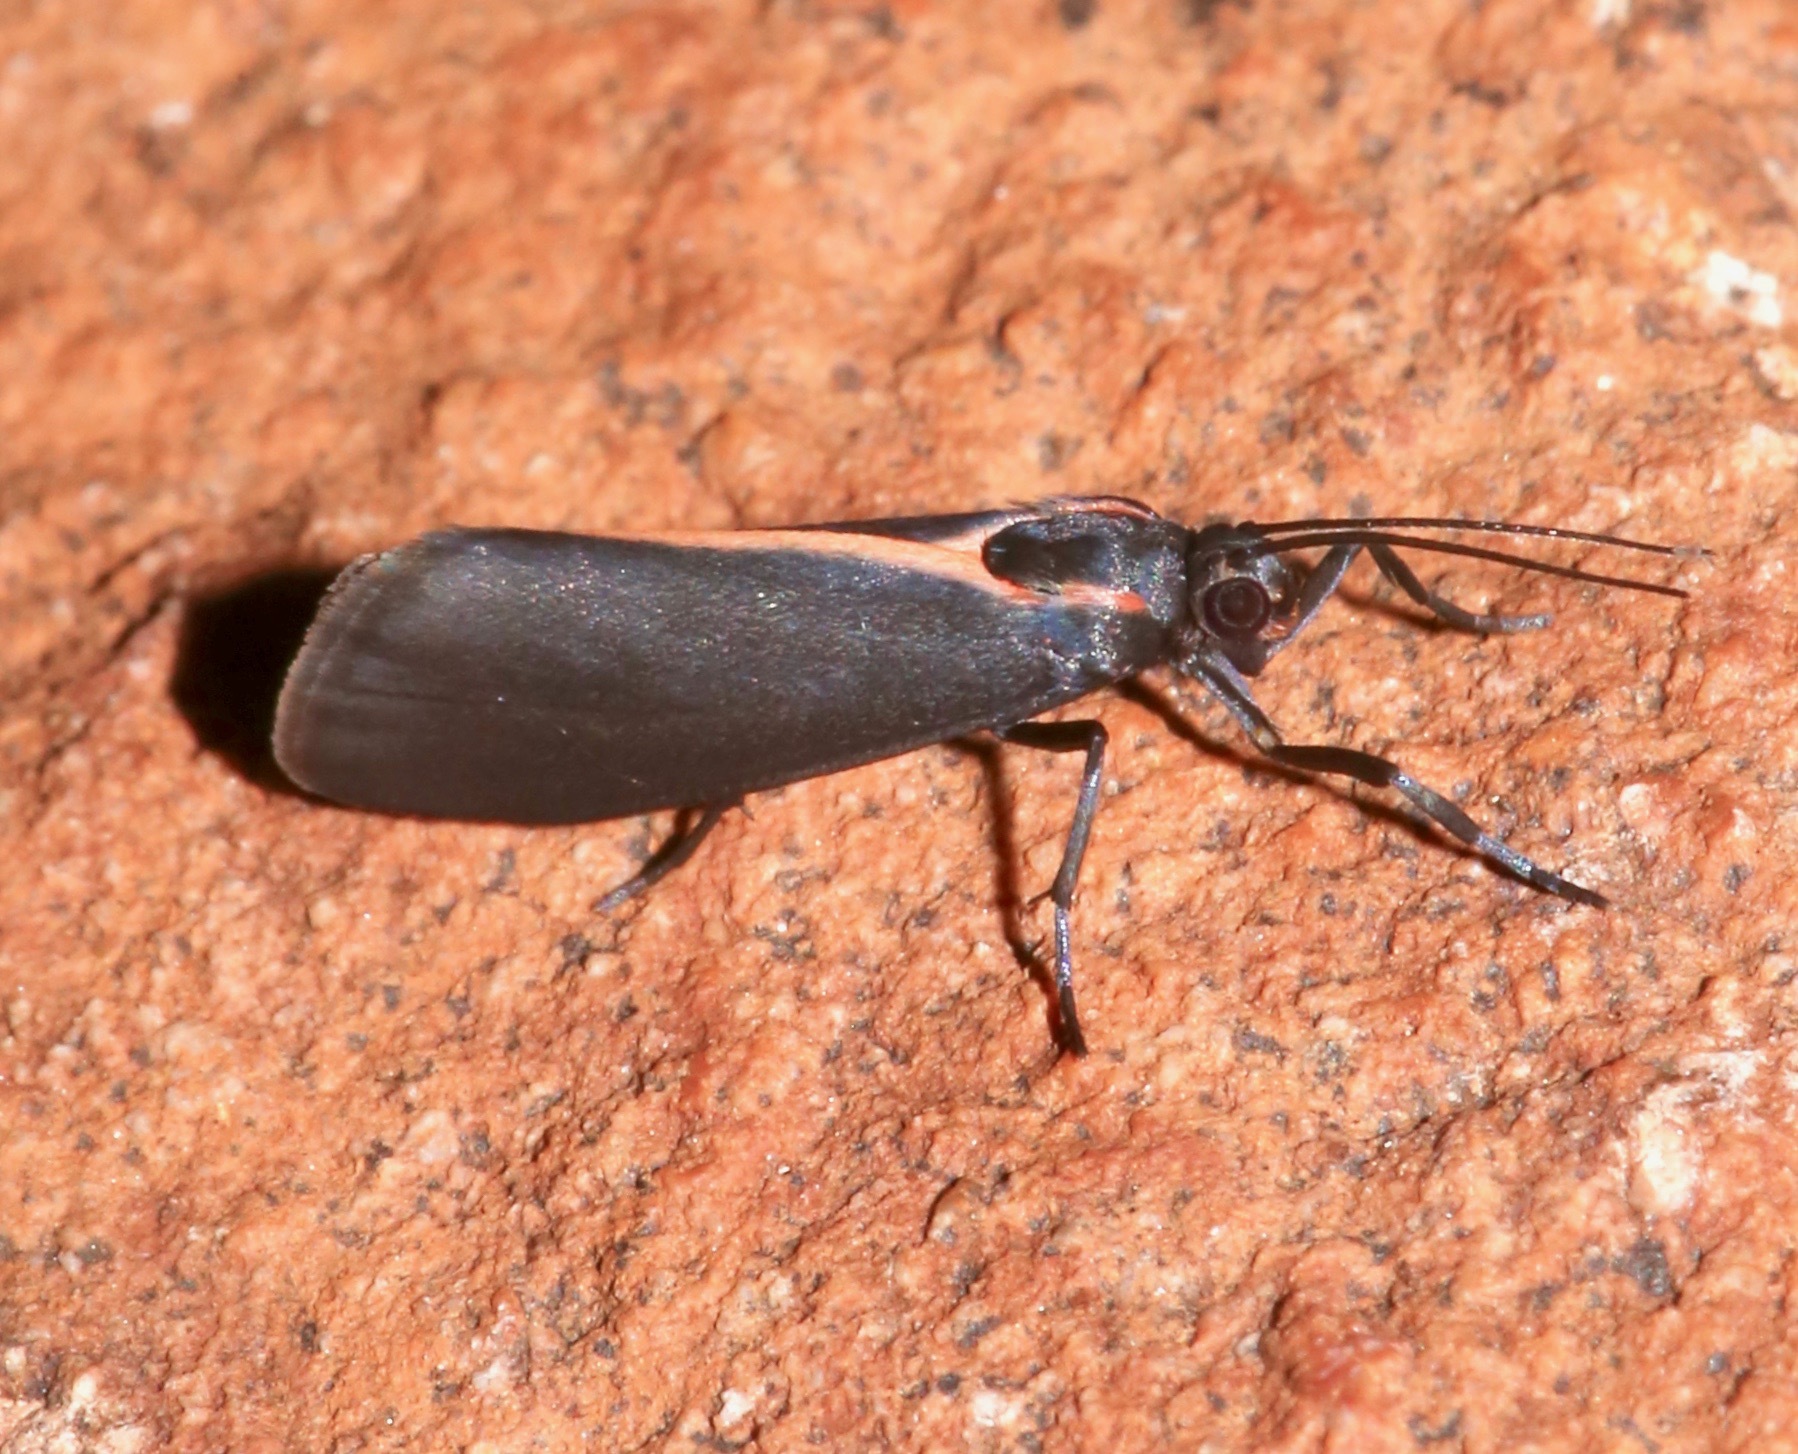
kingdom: Animalia
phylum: Arthropoda
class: Insecta
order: Lepidoptera
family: Erebidae
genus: Cisthene
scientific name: Cisthene juanita
